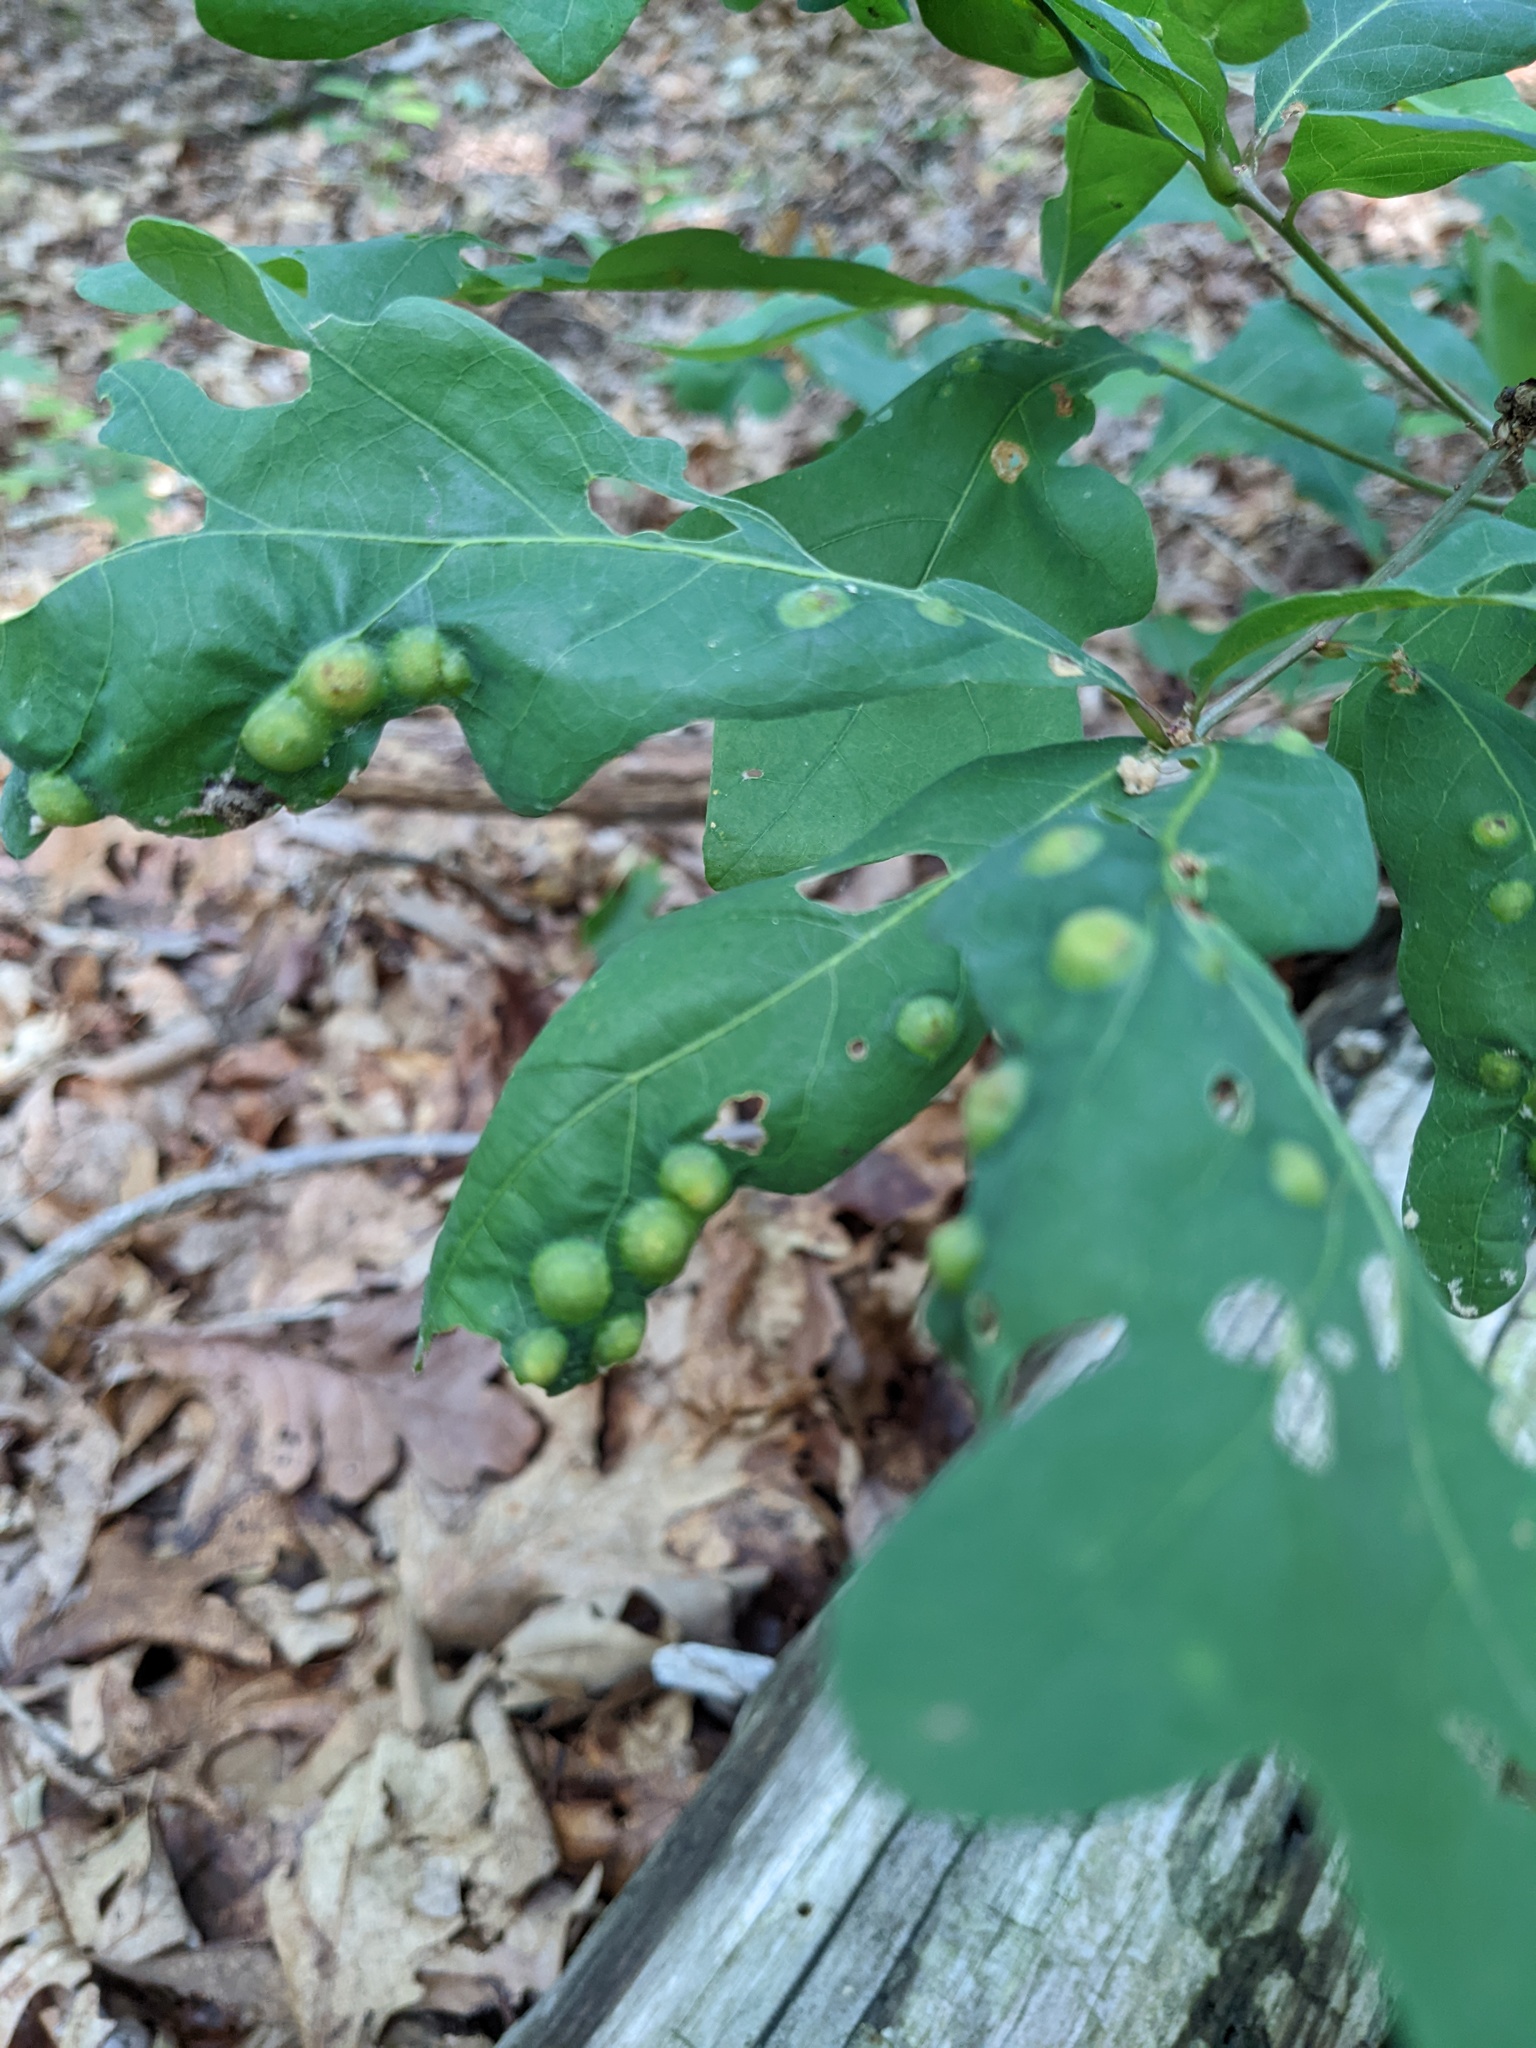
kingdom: Animalia
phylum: Arthropoda
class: Insecta
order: Hymenoptera
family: Cynipidae
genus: Callirhytis
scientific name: Callirhytis
